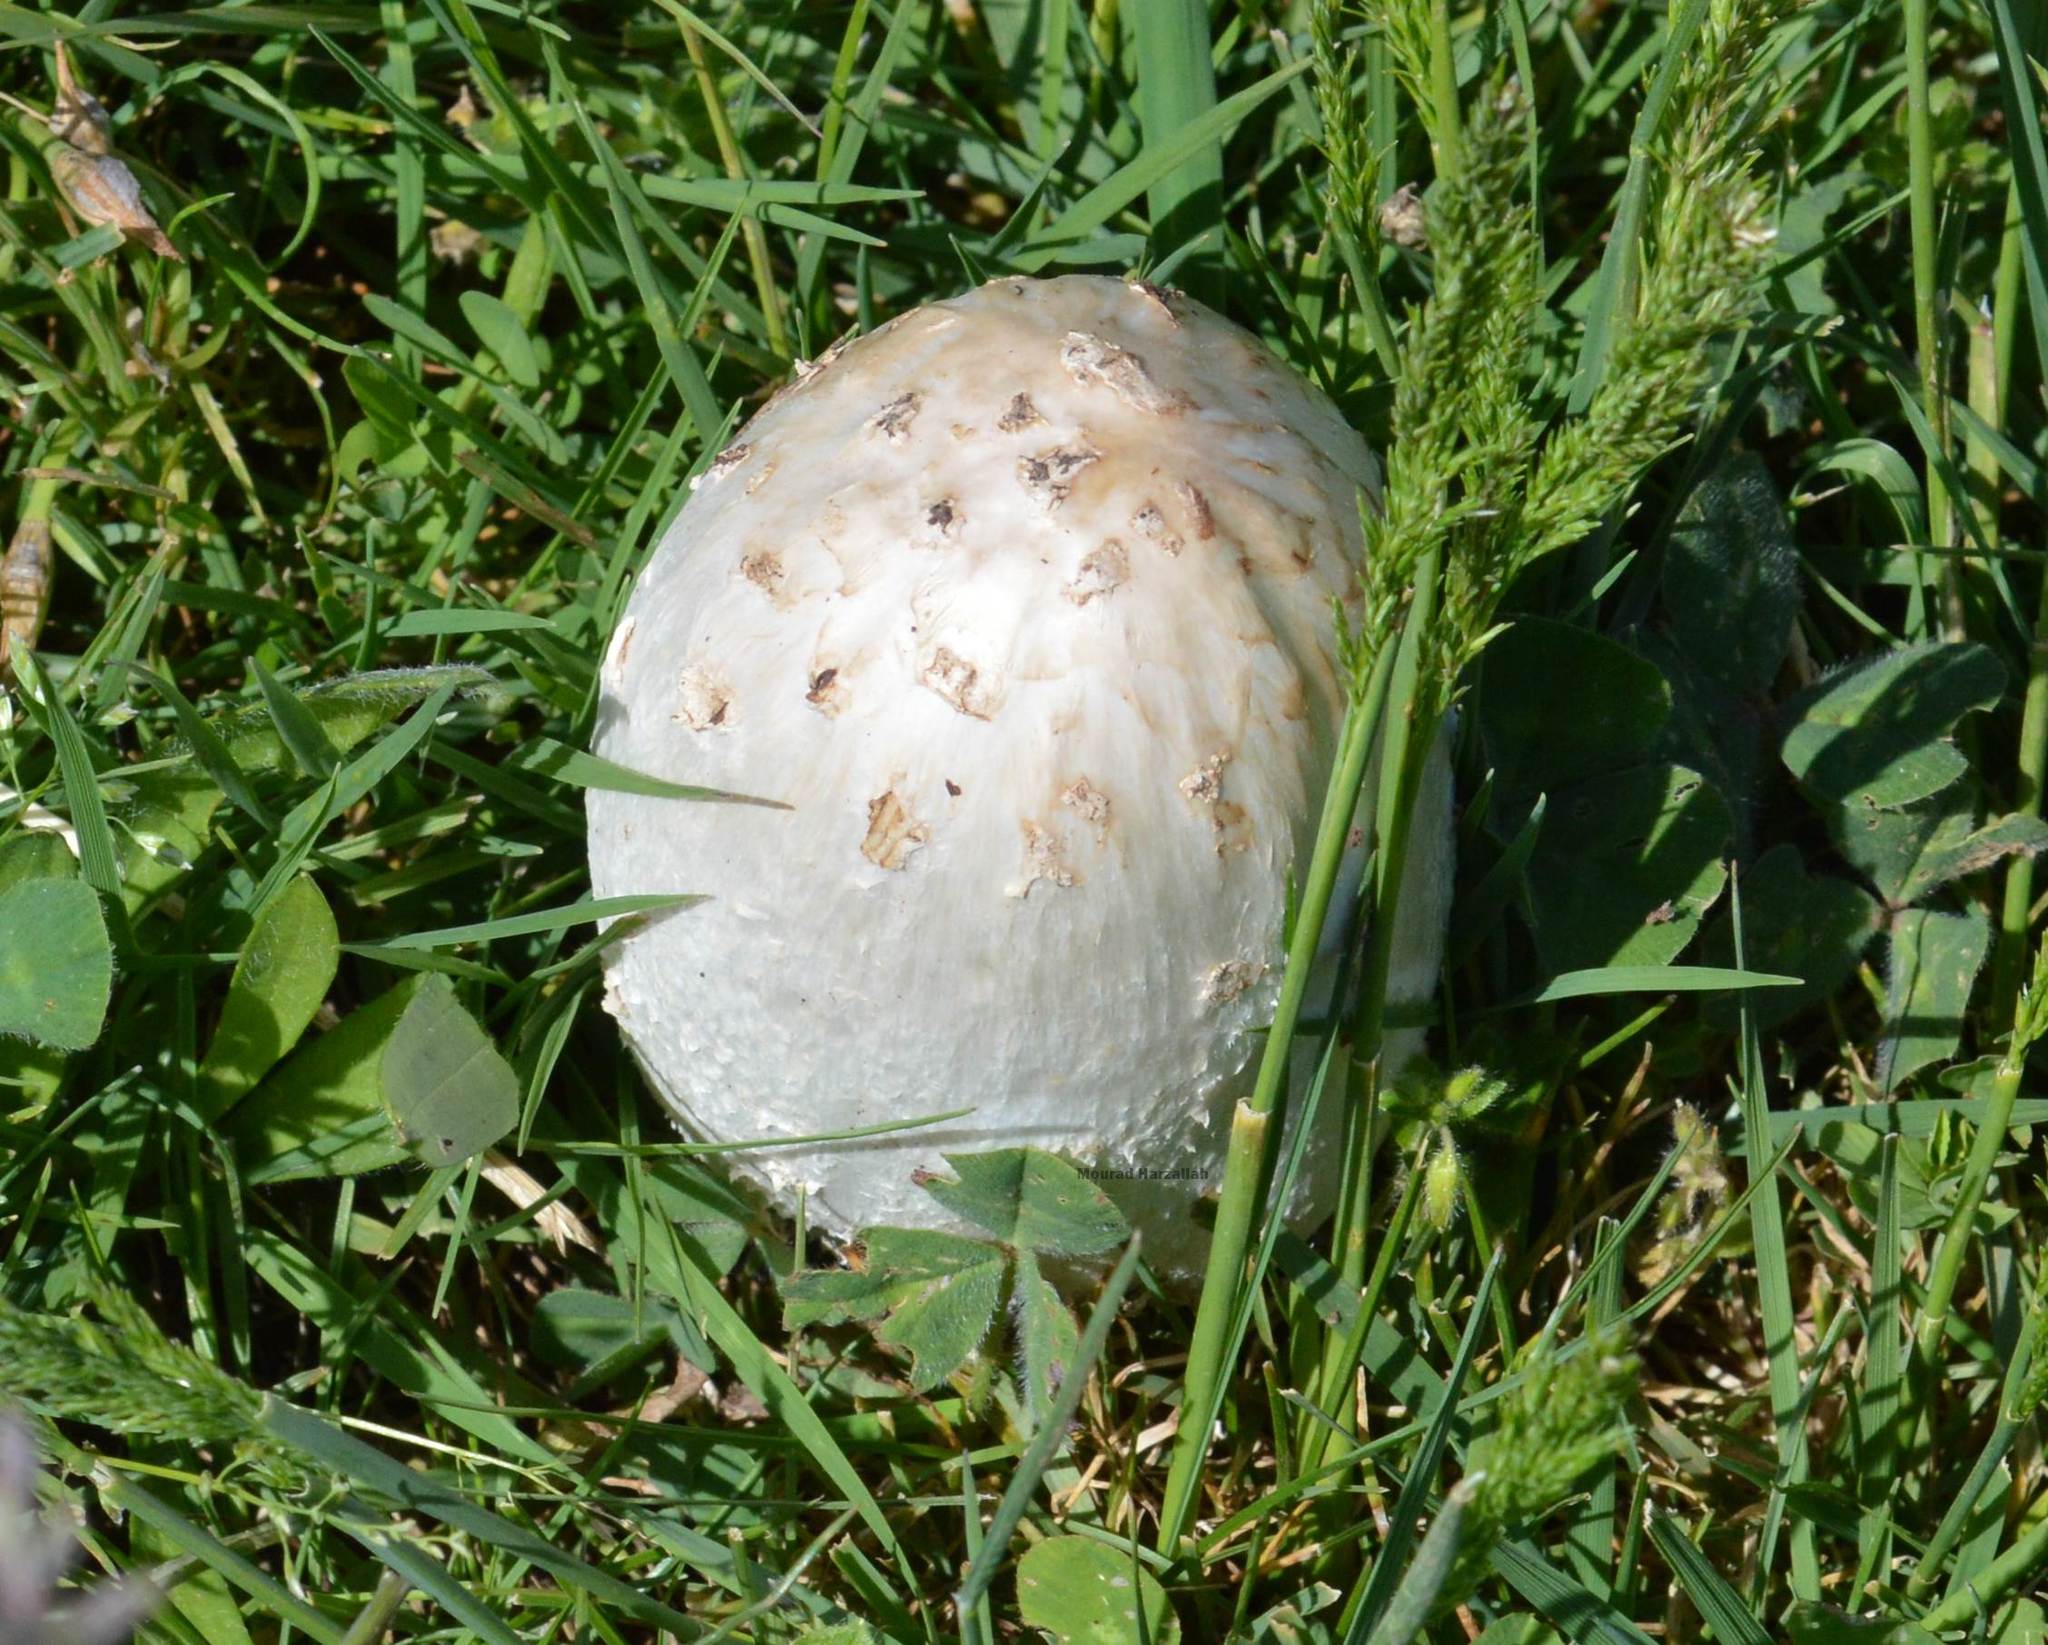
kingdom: Fungi
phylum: Basidiomycota
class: Agaricomycetes
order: Agaricales
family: Agaricaceae
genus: Coprinus
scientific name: Coprinus comatus
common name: Lawyer's wig
